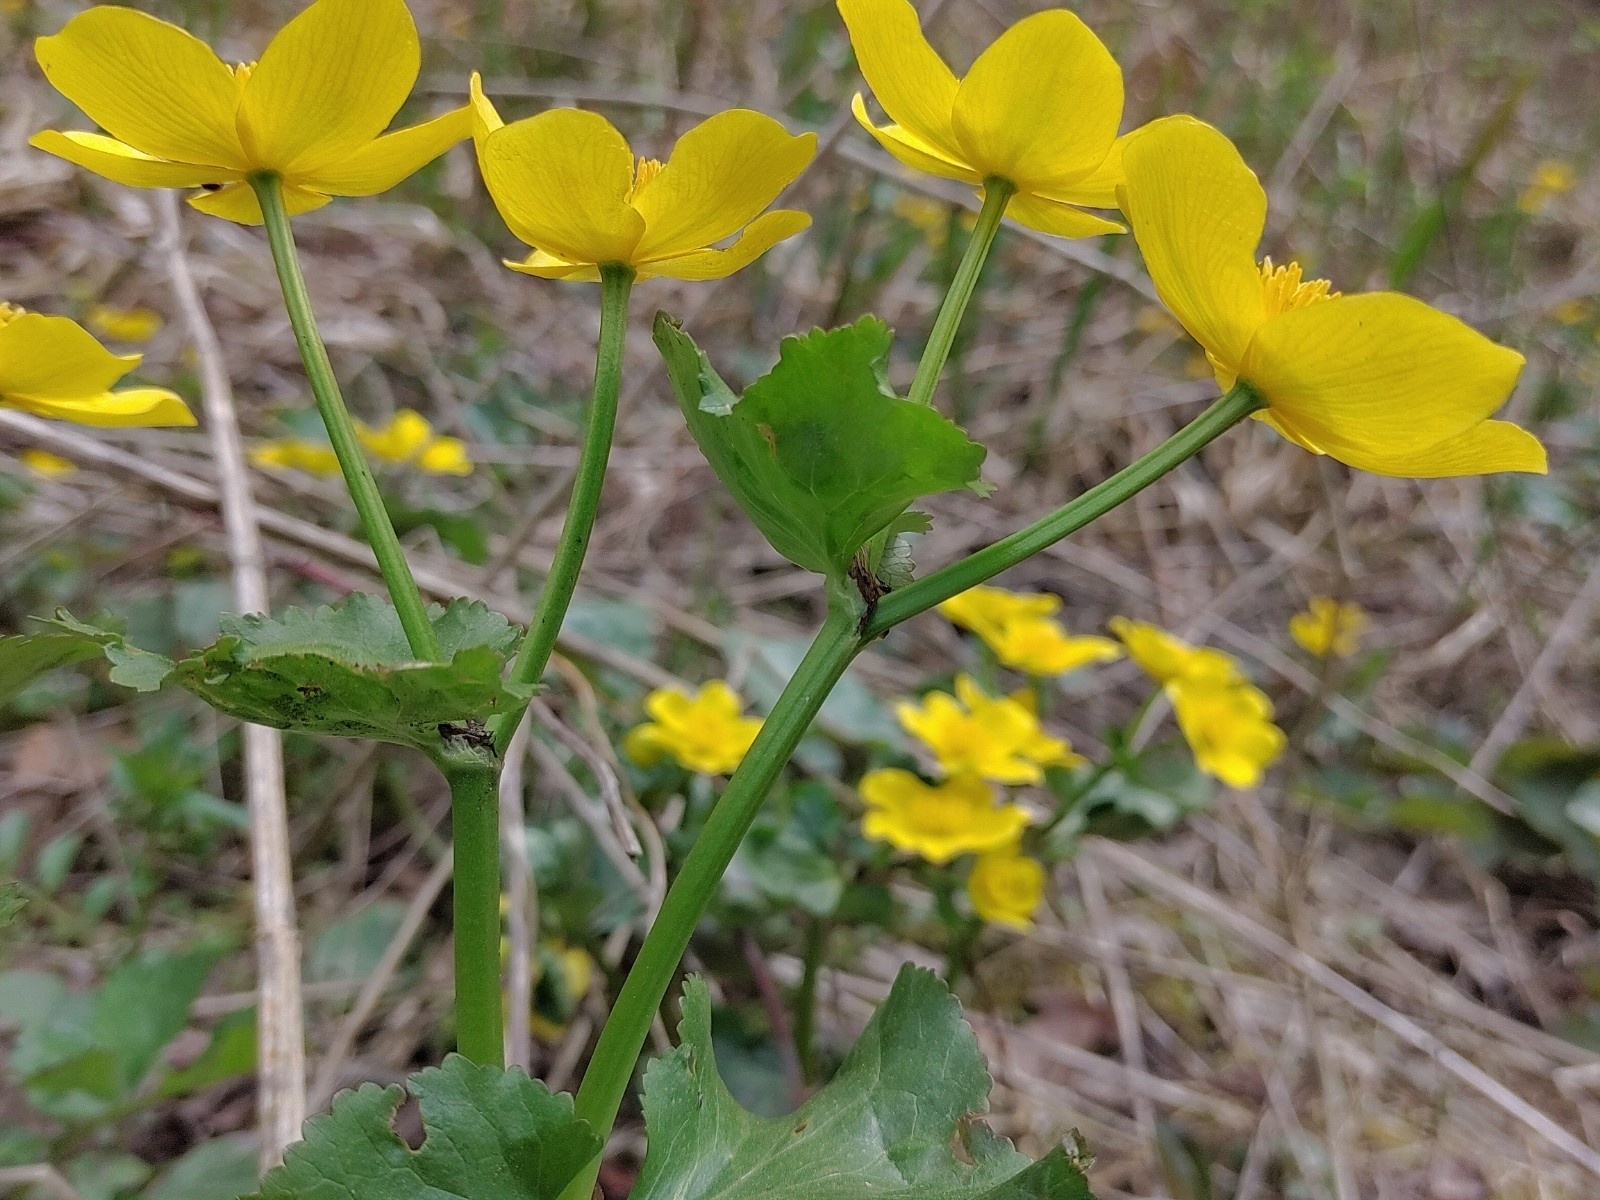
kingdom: Plantae
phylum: Tracheophyta
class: Magnoliopsida
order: Ranunculales
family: Ranunculaceae
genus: Caltha
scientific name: Caltha palustris
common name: Marsh marigold
